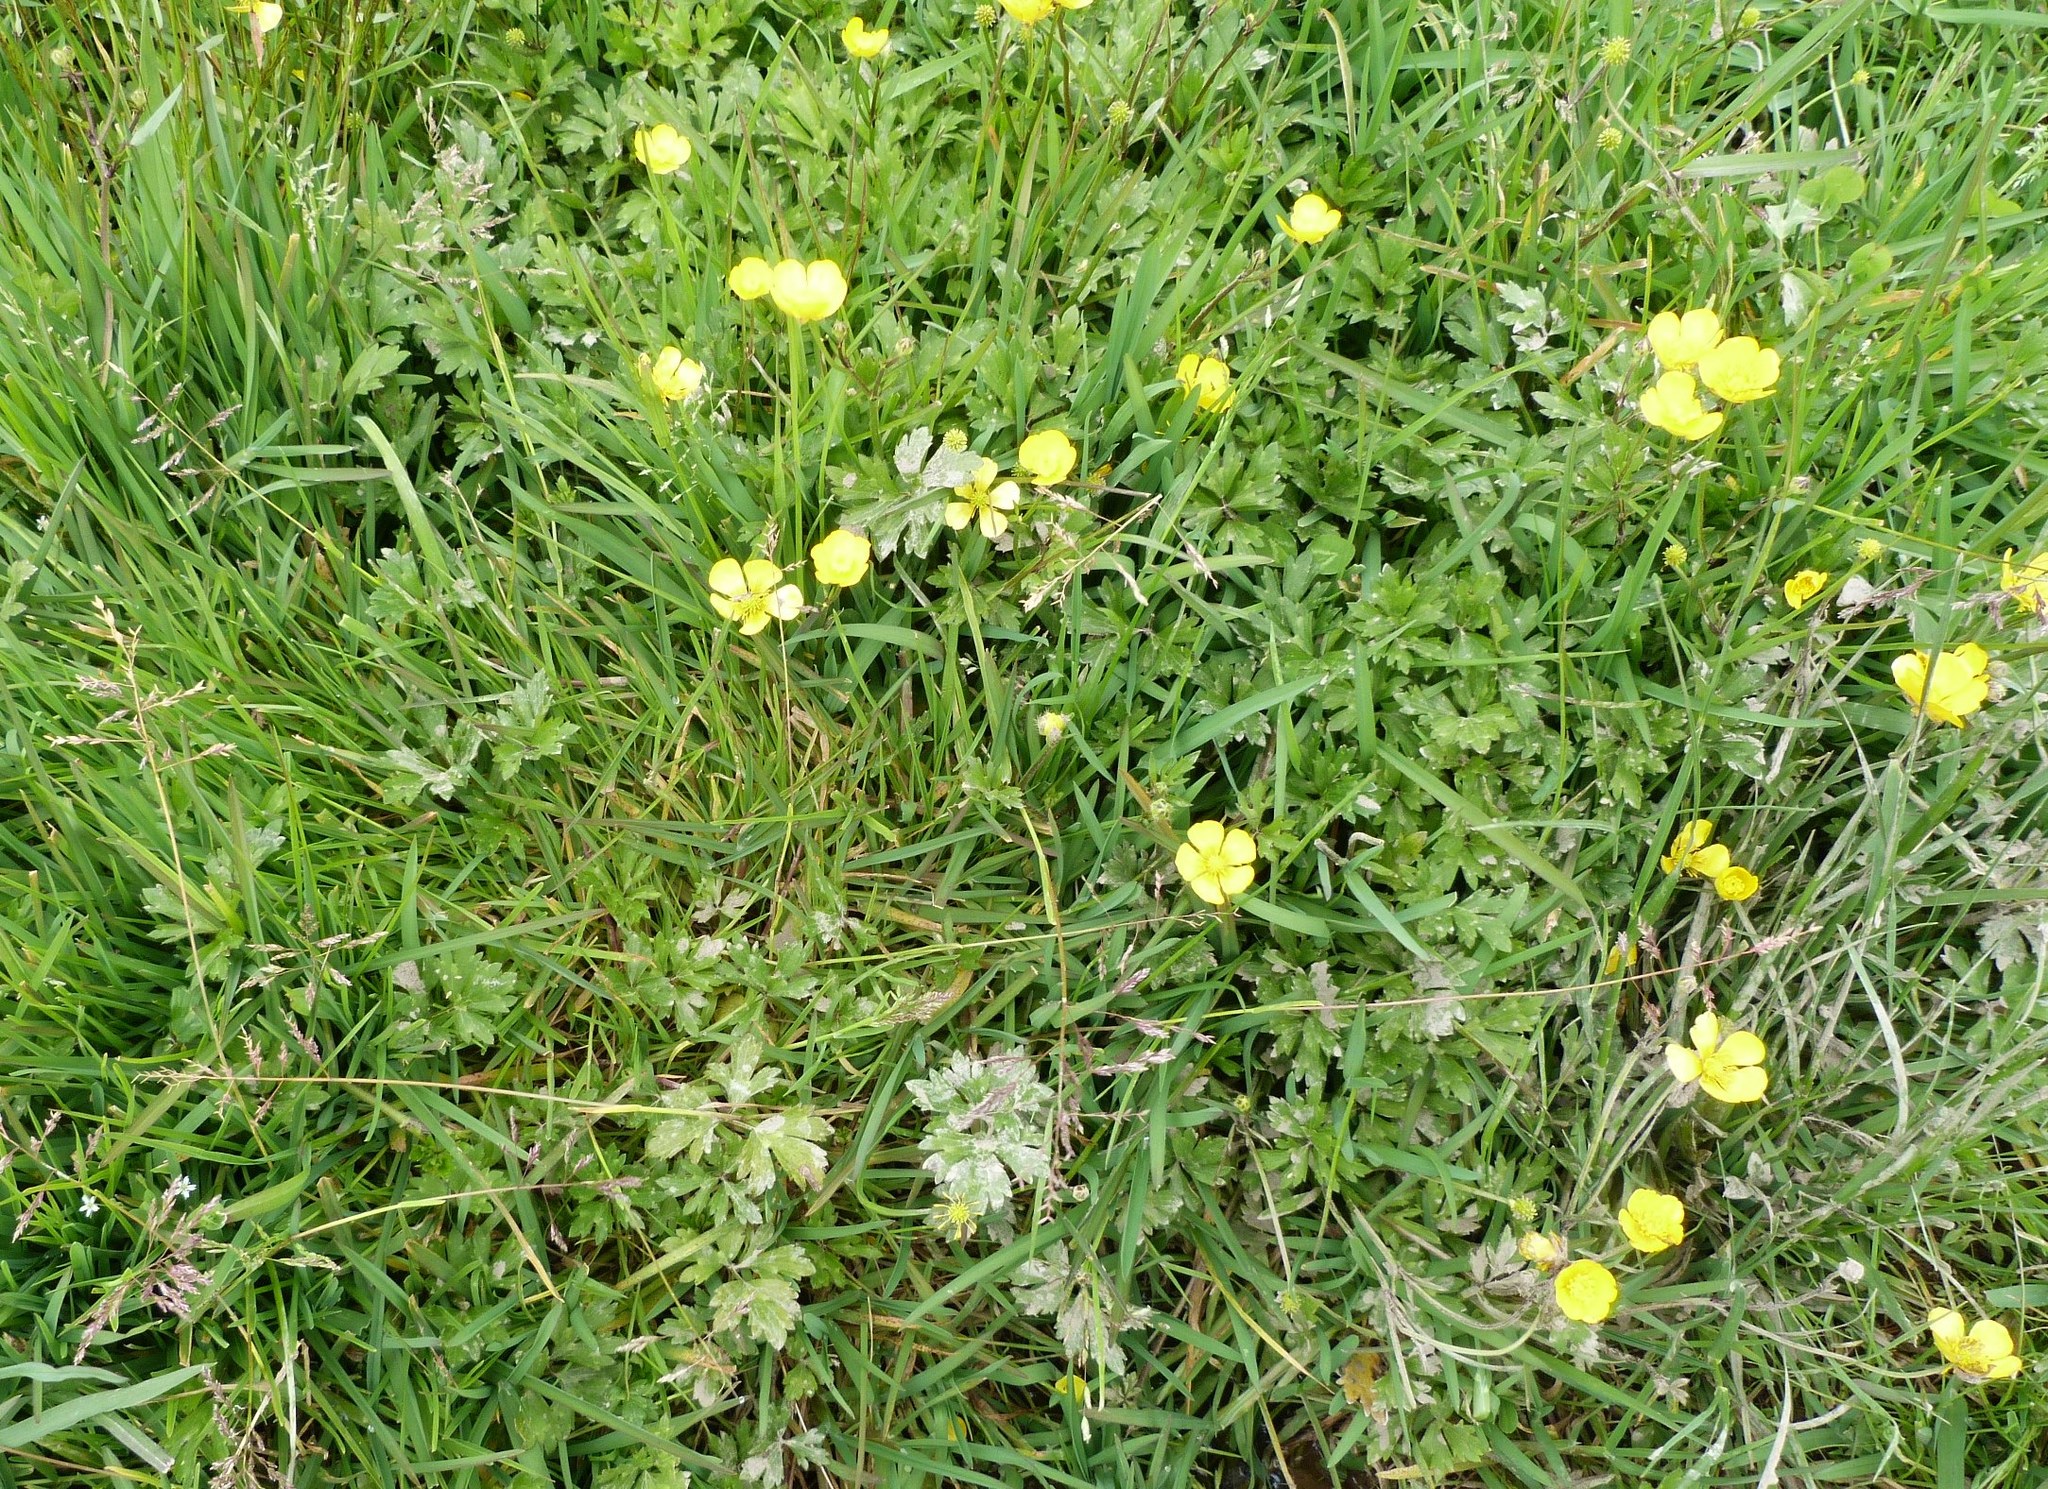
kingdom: Plantae
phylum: Tracheophyta
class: Magnoliopsida
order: Ranunculales
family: Ranunculaceae
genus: Ranunculus
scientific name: Ranunculus repens
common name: Creeping buttercup
